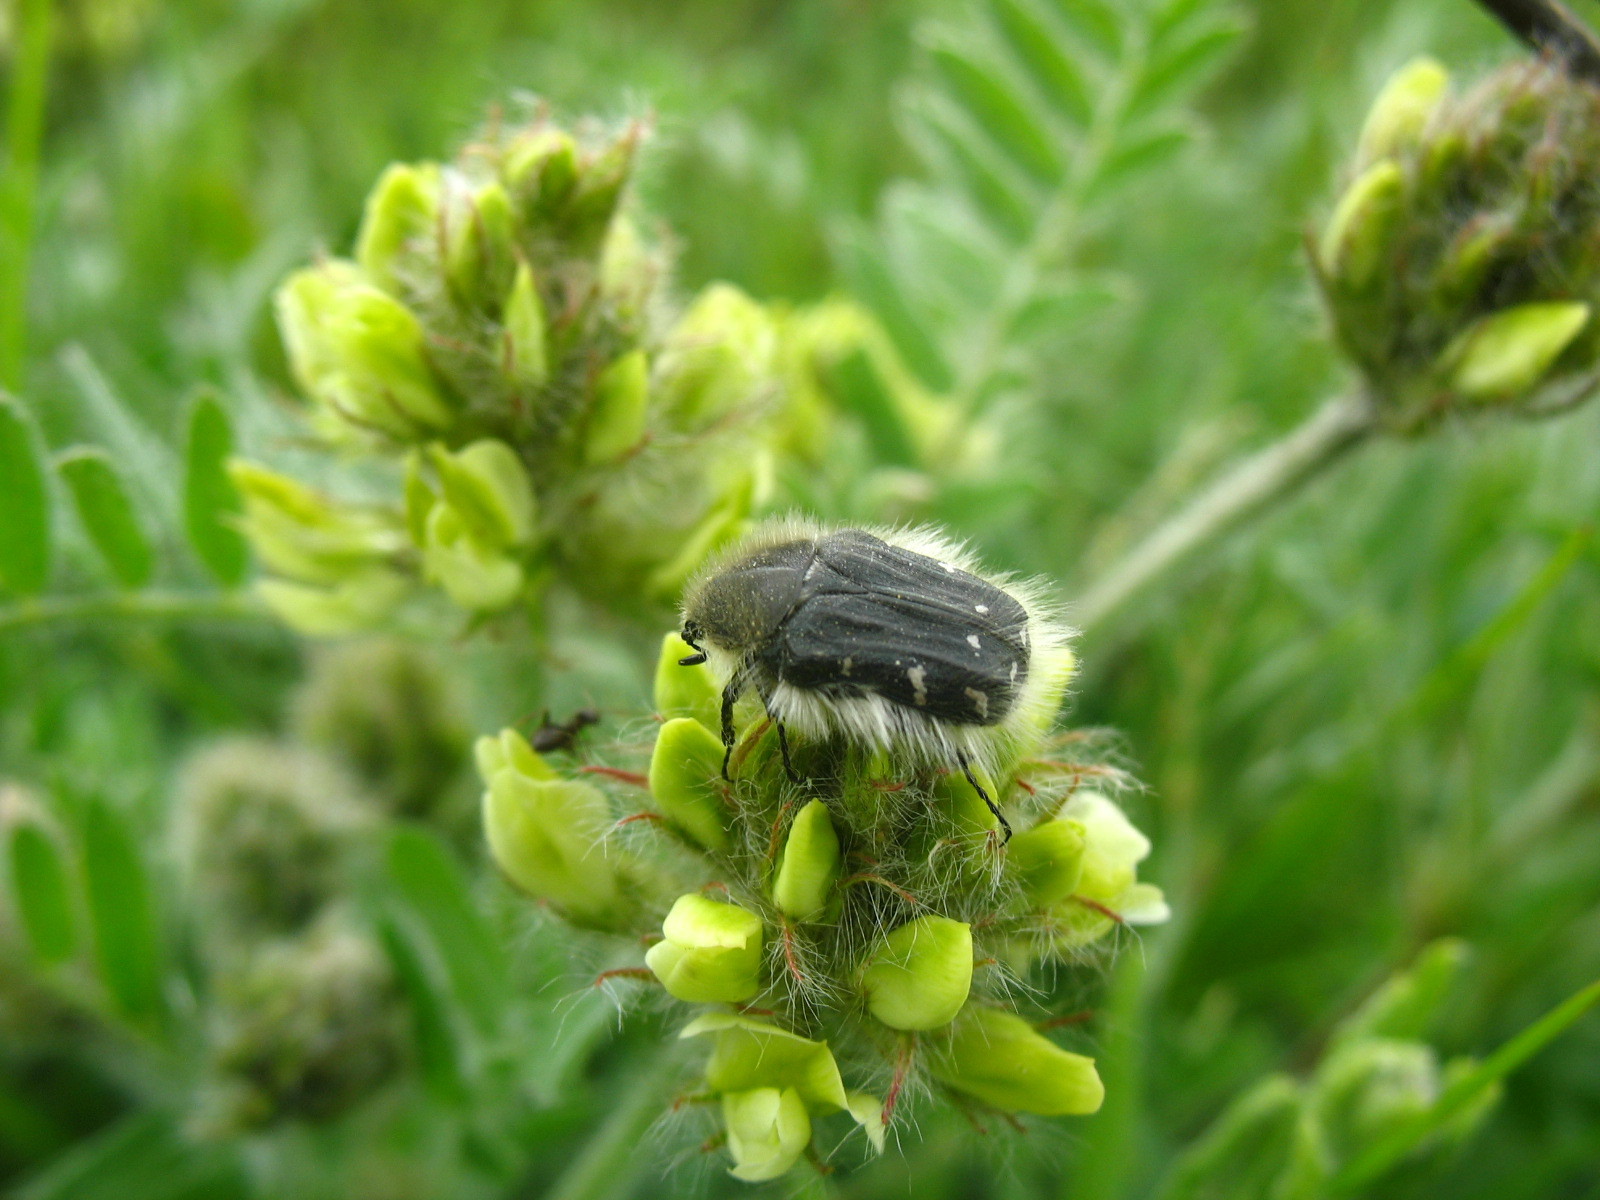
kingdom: Animalia
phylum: Arthropoda
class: Insecta
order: Coleoptera
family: Scarabaeidae
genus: Tropinota
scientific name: Tropinota hirta
